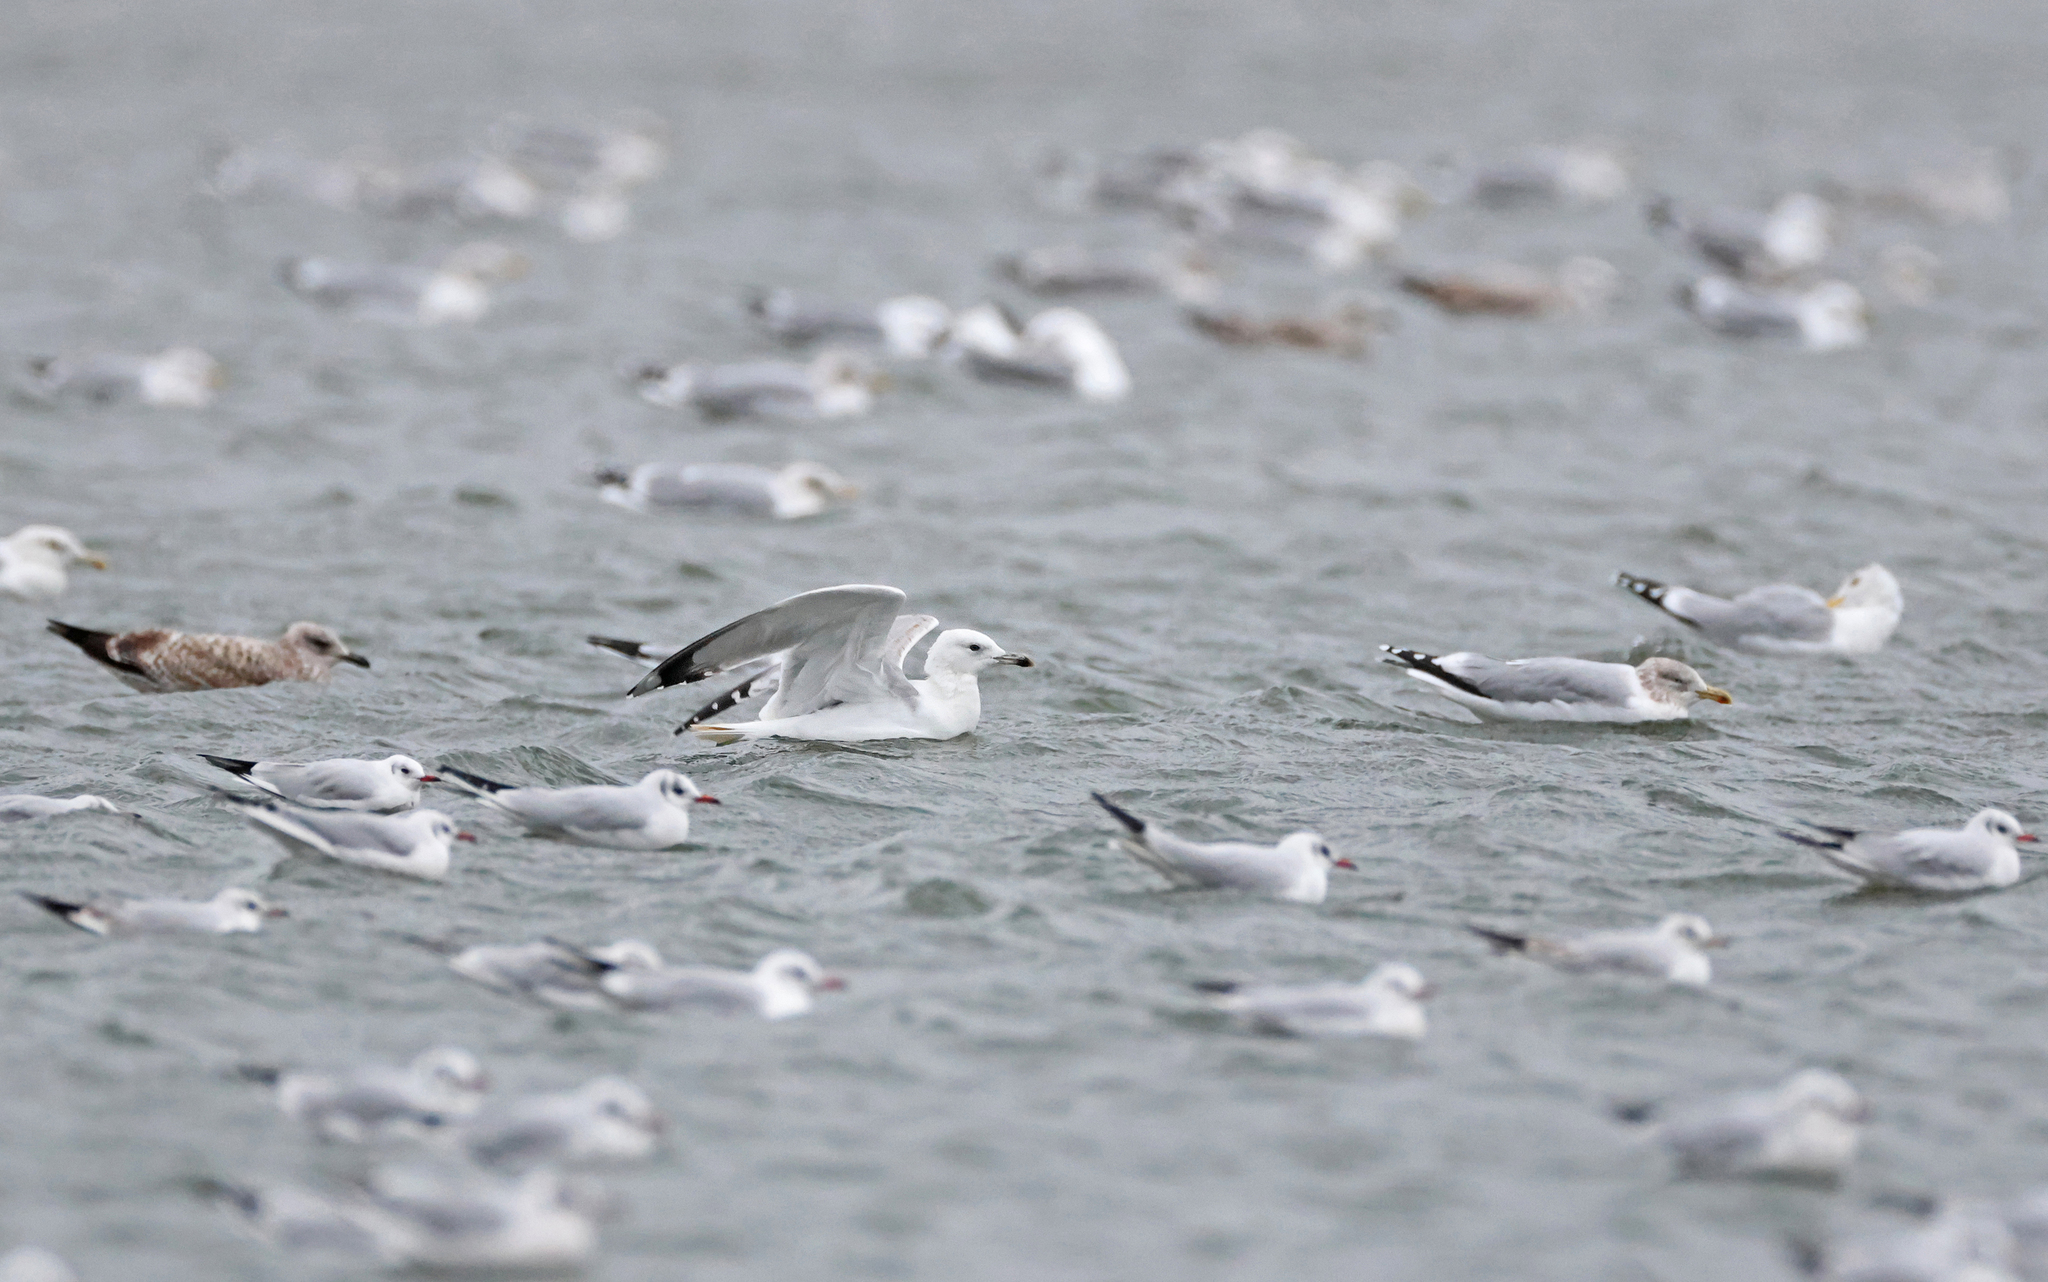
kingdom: Animalia
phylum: Chordata
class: Aves
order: Charadriiformes
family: Laridae
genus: Larus
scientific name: Larus cachinnans
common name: Caspian gull
